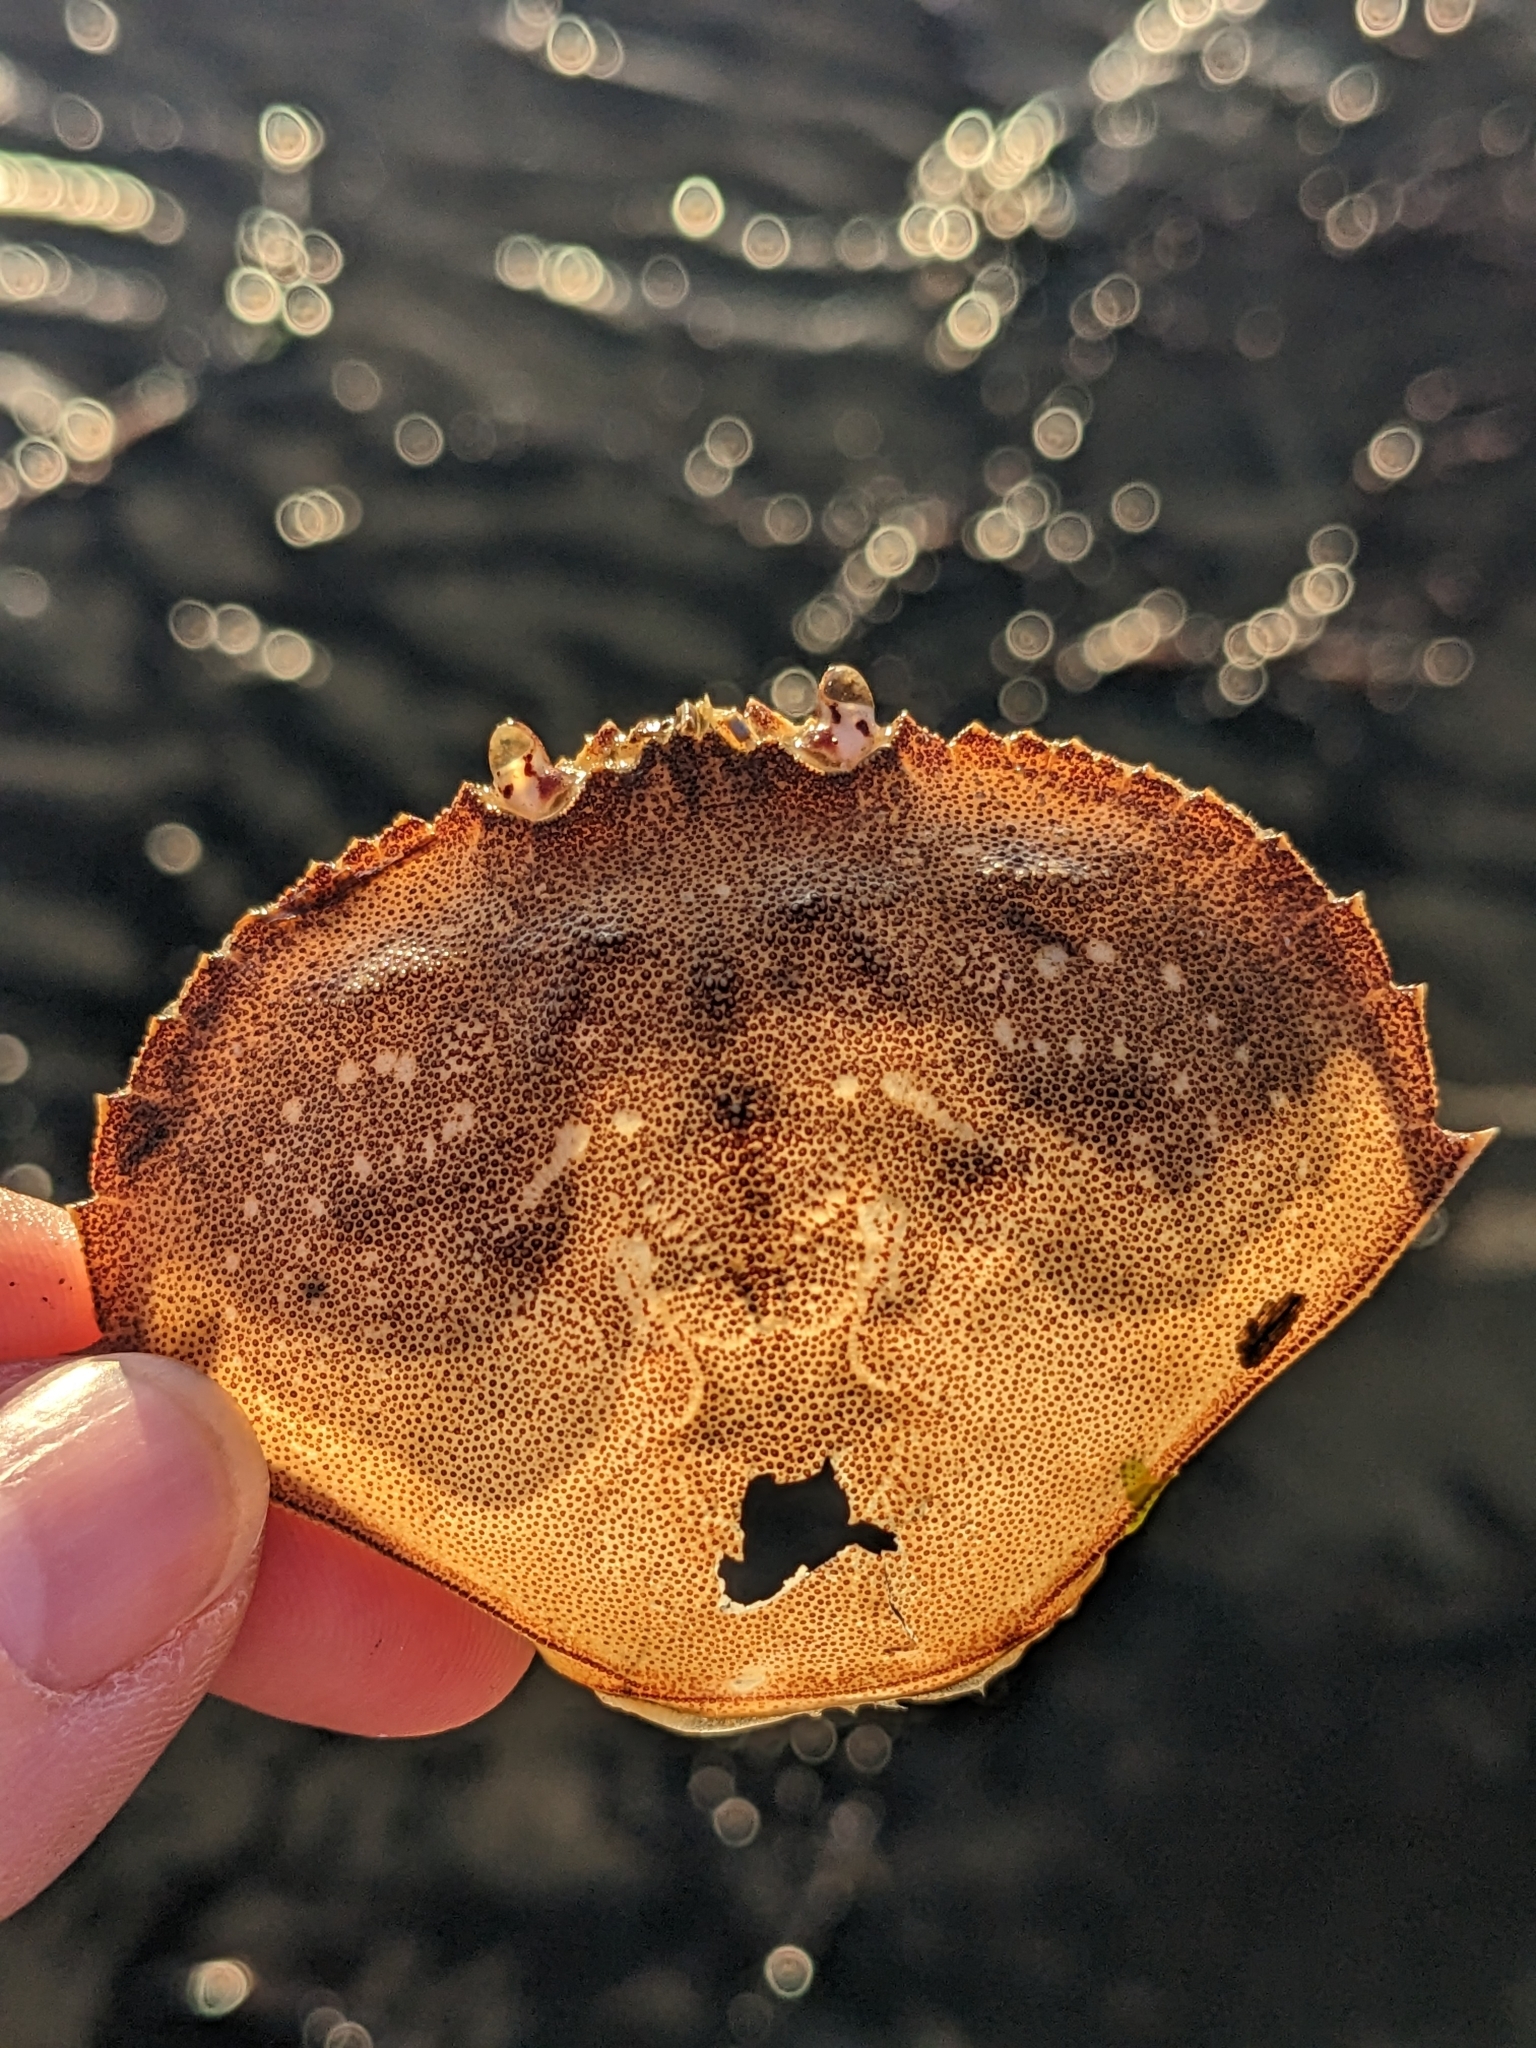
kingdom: Animalia
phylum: Arthropoda
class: Malacostraca
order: Decapoda
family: Cancridae
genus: Metacarcinus
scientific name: Metacarcinus magister
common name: Californian crab
